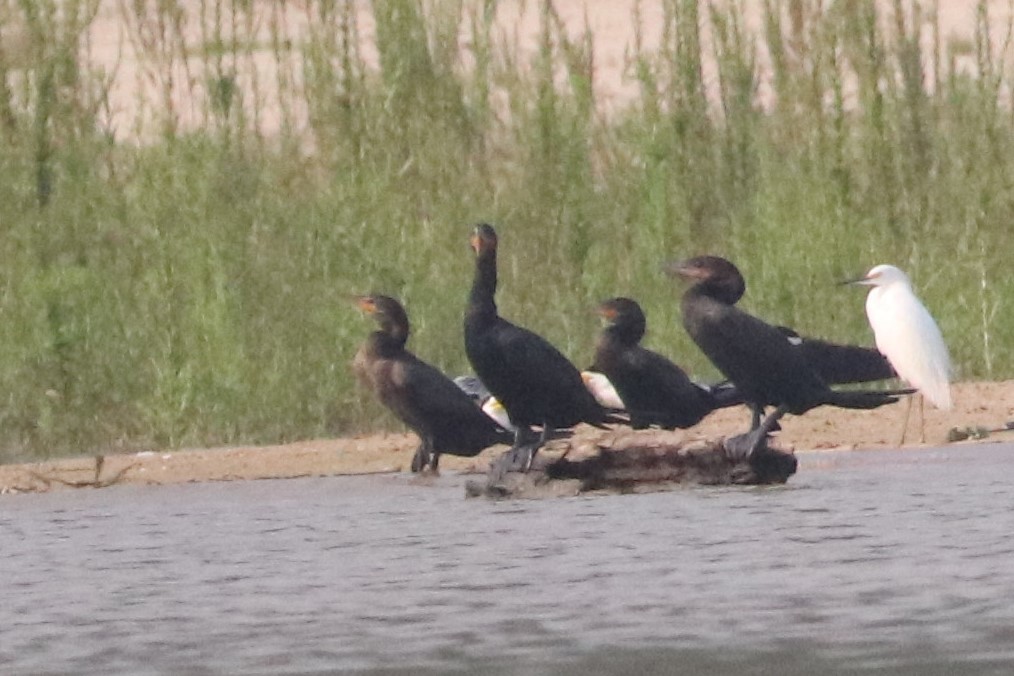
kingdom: Animalia
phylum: Chordata
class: Aves
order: Suliformes
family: Phalacrocoracidae
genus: Phalacrocorax
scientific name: Phalacrocorax brasilianus
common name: Neotropic cormorant
